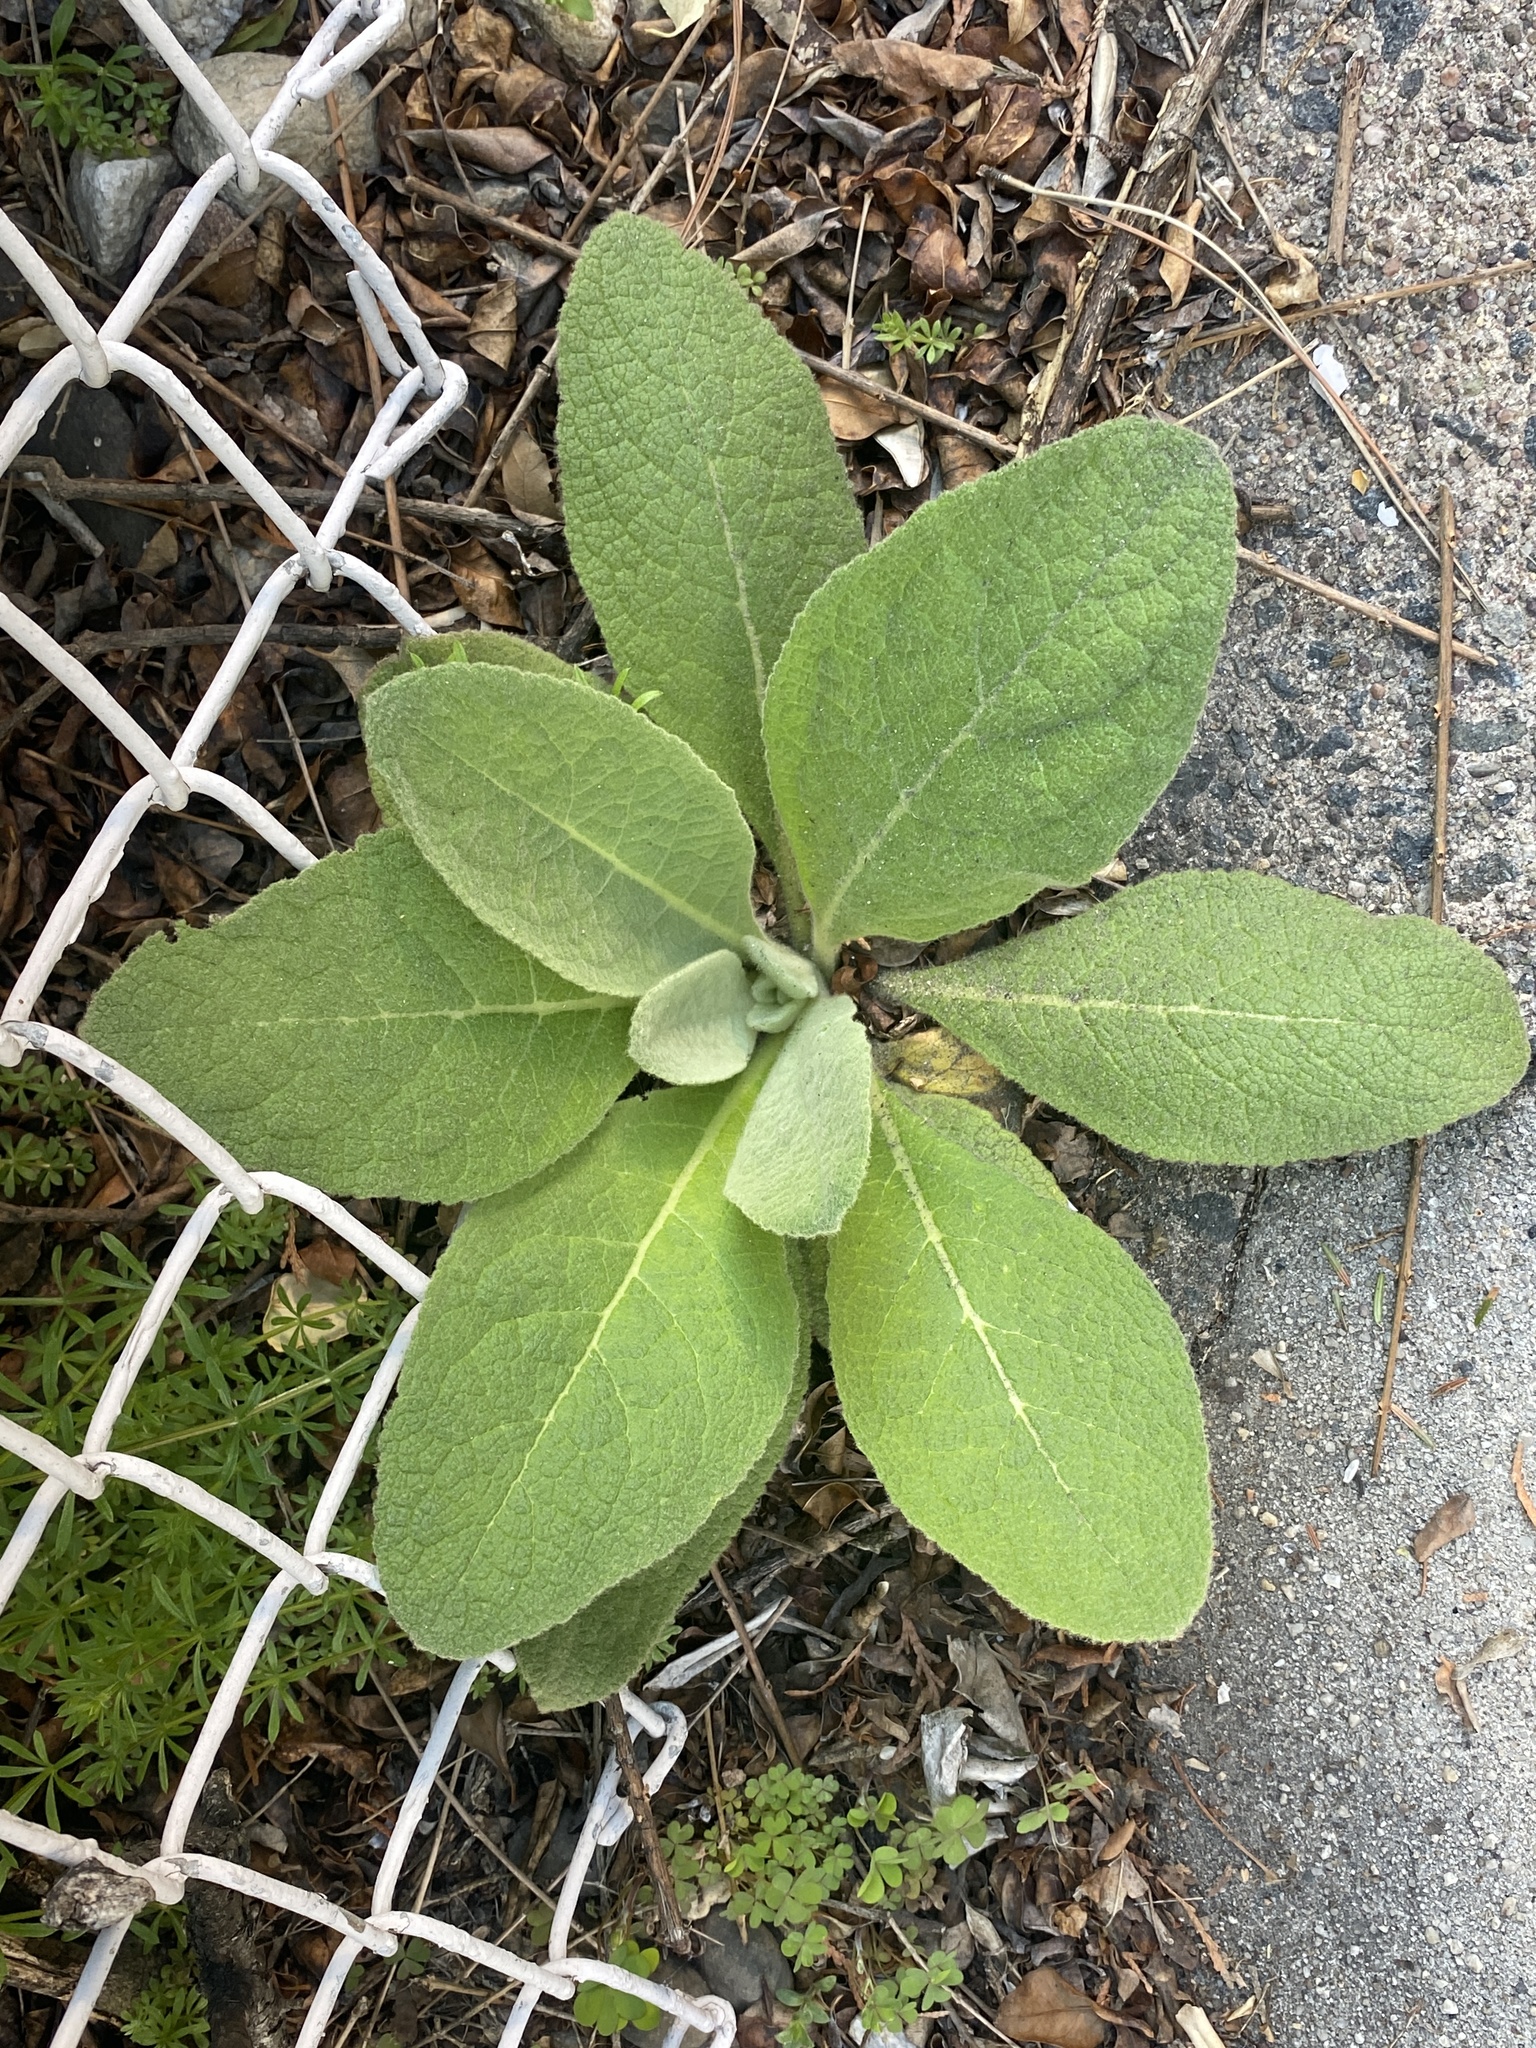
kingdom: Plantae
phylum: Tracheophyta
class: Magnoliopsida
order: Lamiales
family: Scrophulariaceae
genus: Verbascum
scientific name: Verbascum thapsus
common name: Common mullein
